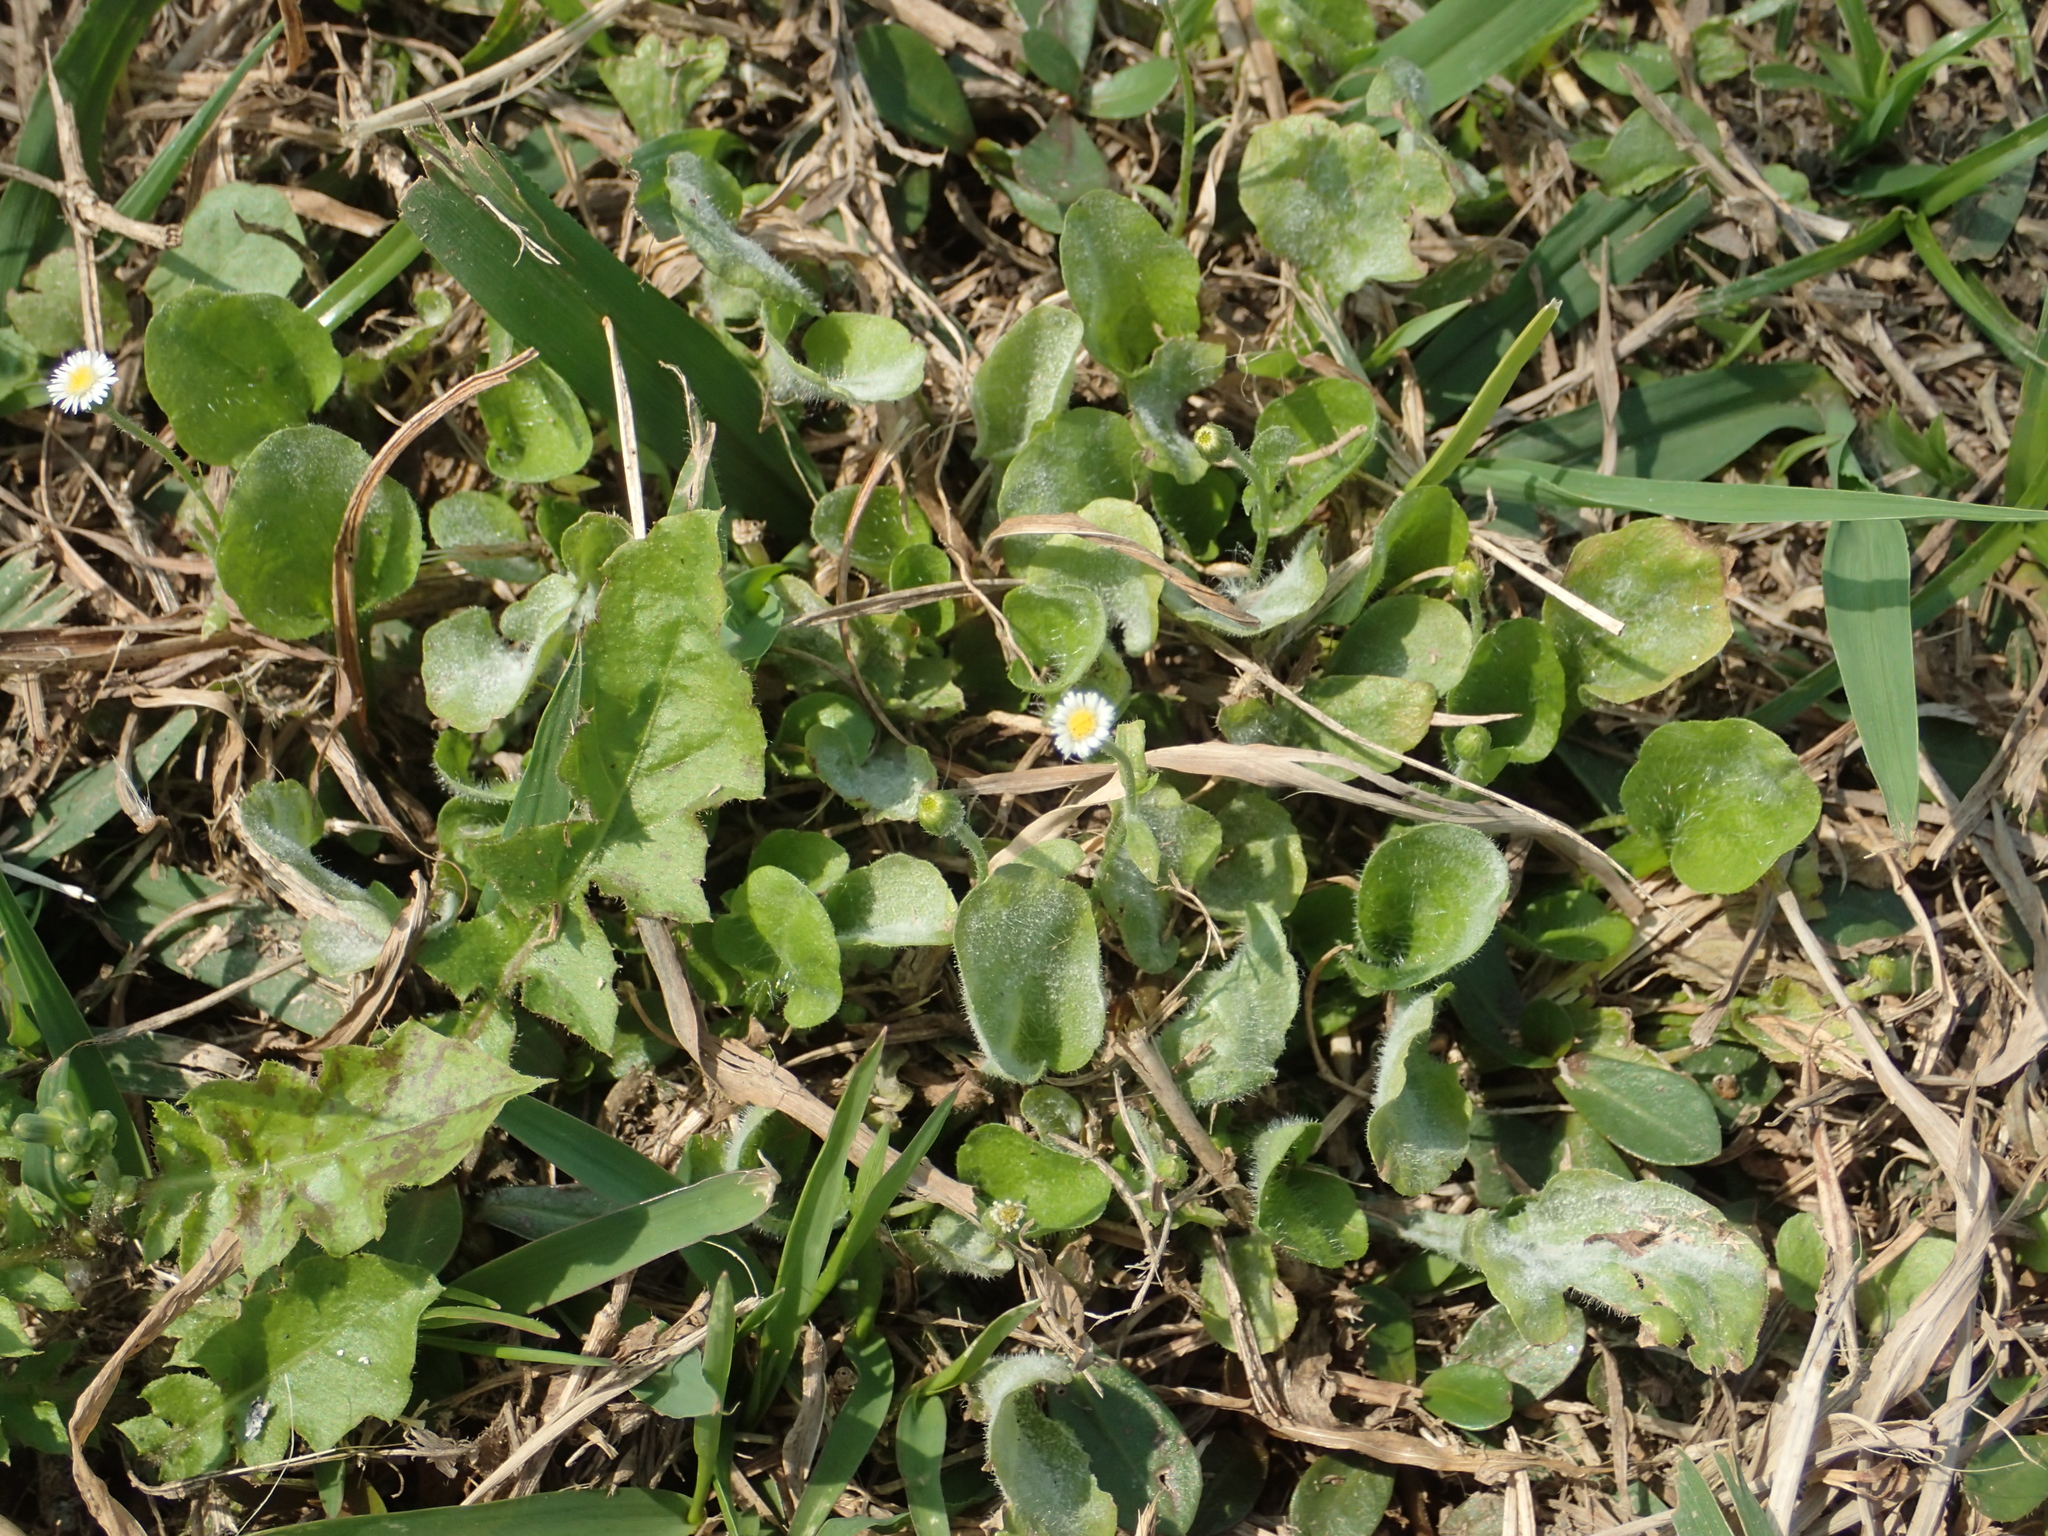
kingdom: Plantae
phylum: Tracheophyta
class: Magnoliopsida
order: Asterales
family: Asteraceae
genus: Erigeron
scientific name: Erigeron bellioides
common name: Bellorita
